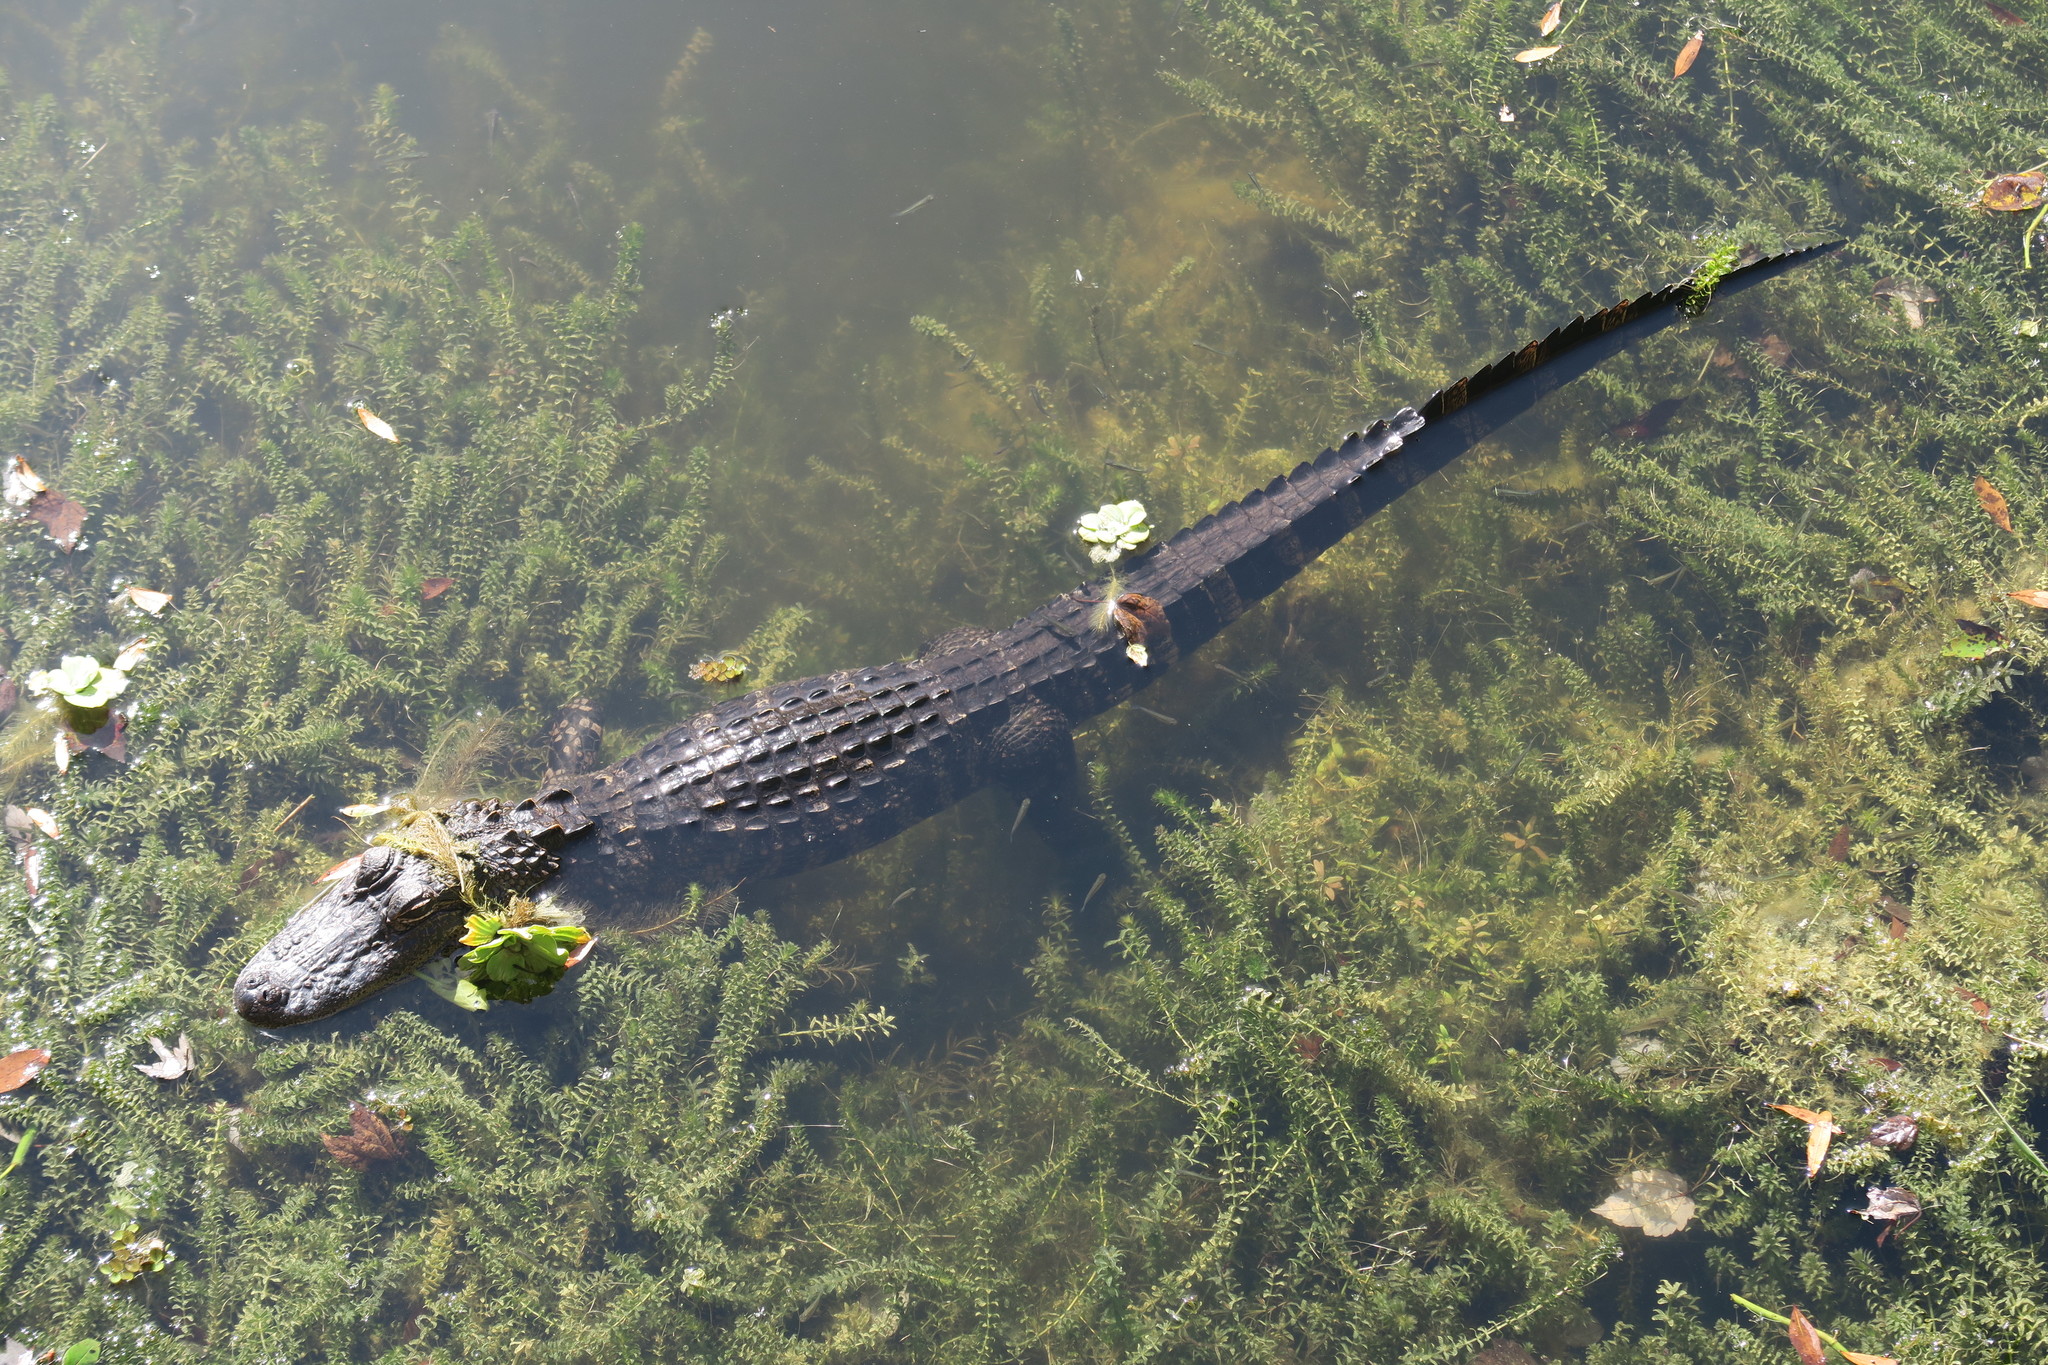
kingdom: Animalia
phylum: Chordata
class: Crocodylia
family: Alligatoridae
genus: Alligator
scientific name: Alligator mississippiensis
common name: American alligator
